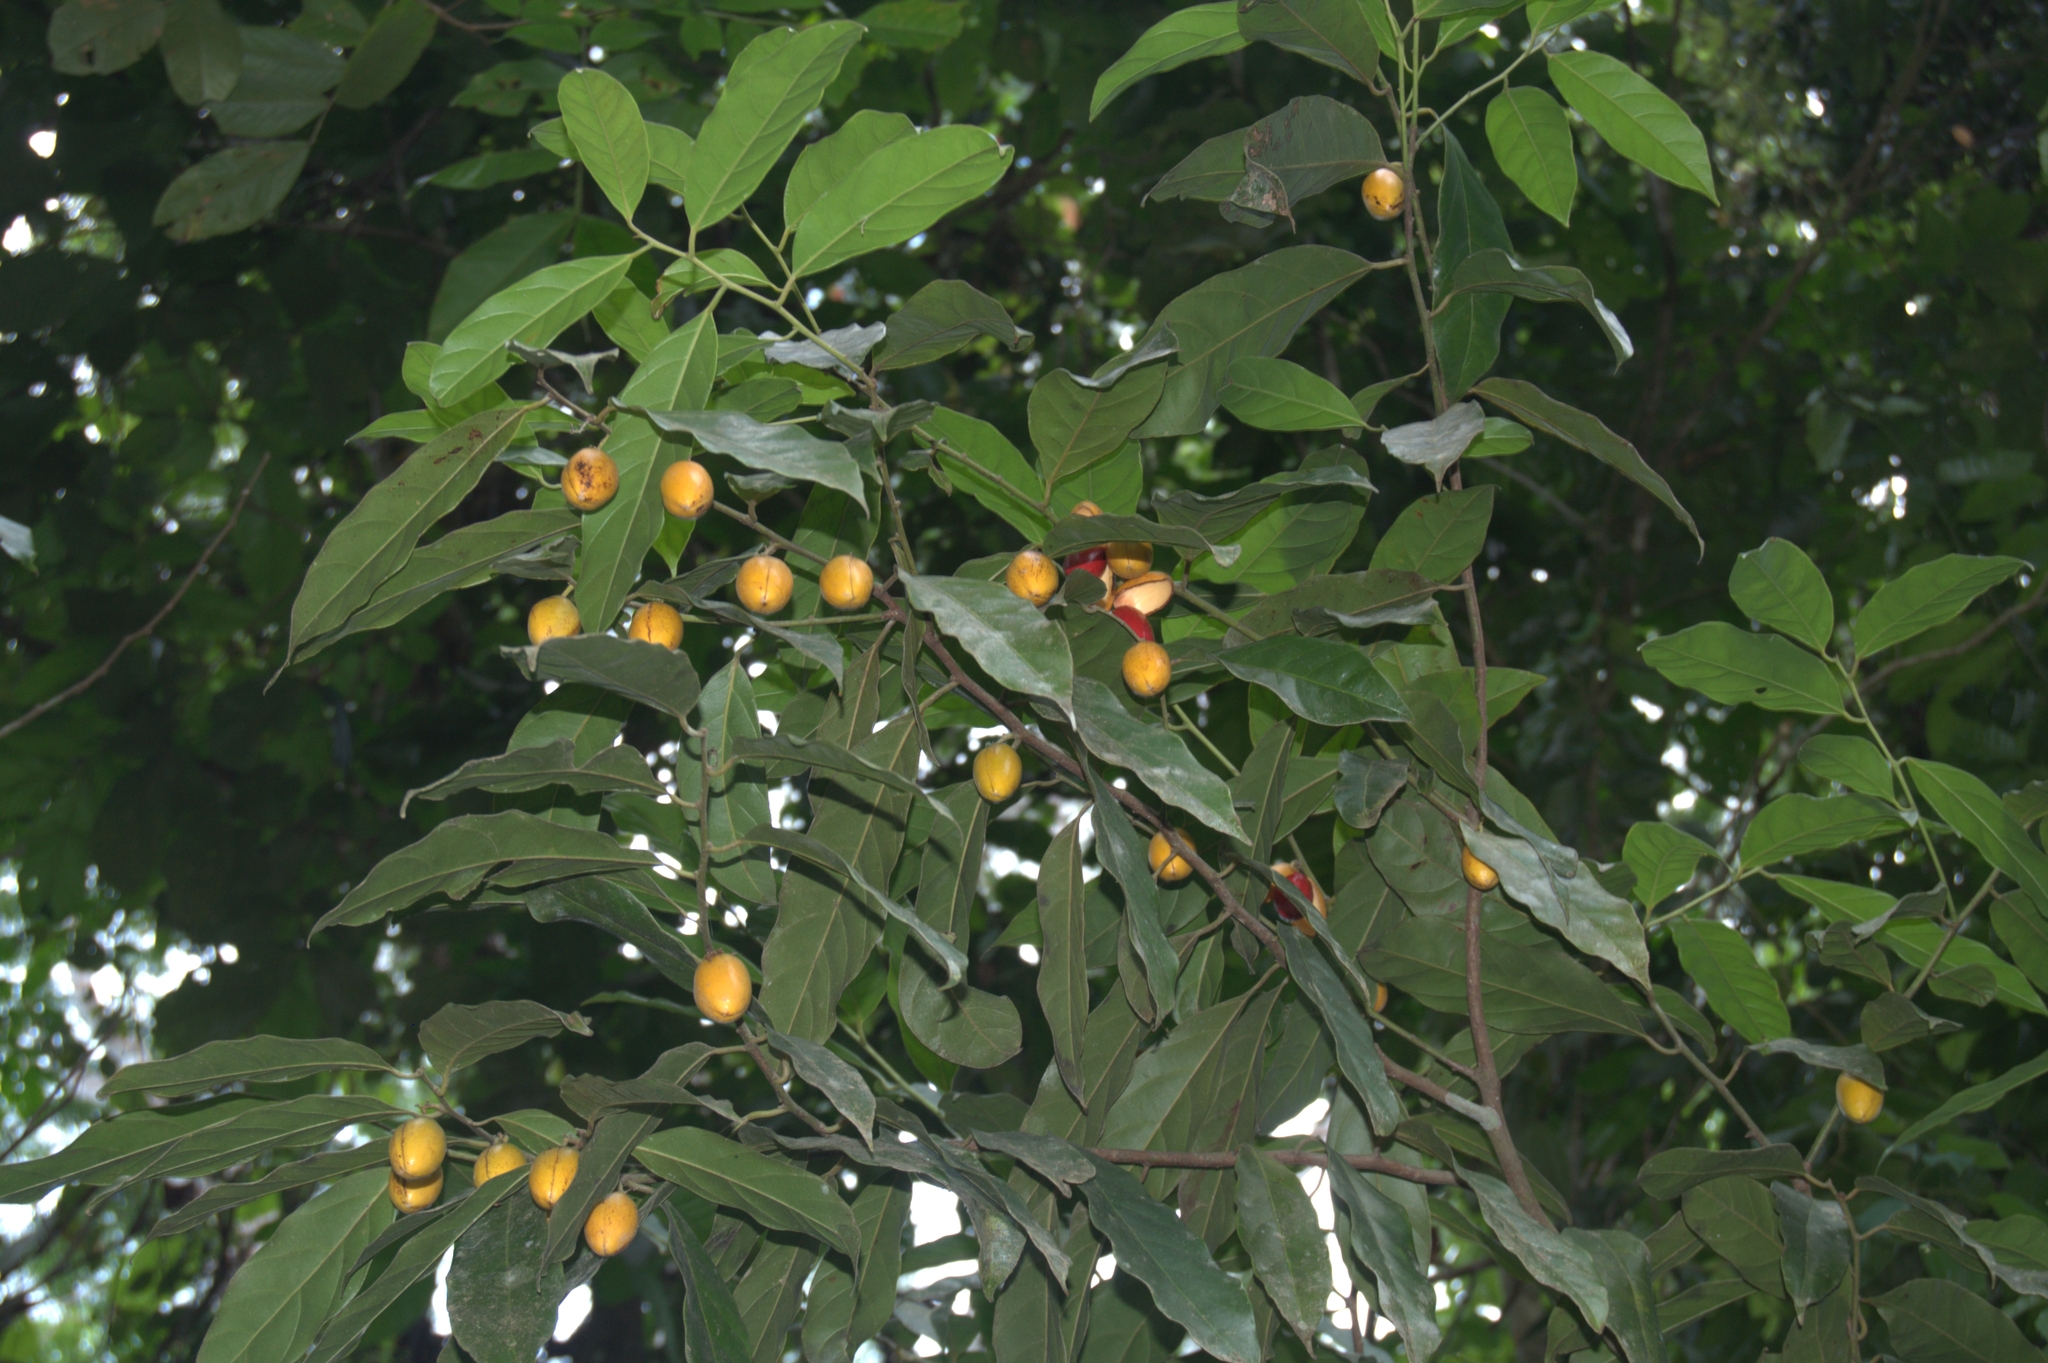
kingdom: Plantae
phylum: Tracheophyta
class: Magnoliopsida
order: Magnoliales
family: Myristicaceae
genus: Compsoneura
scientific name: Compsoneura excelsa
